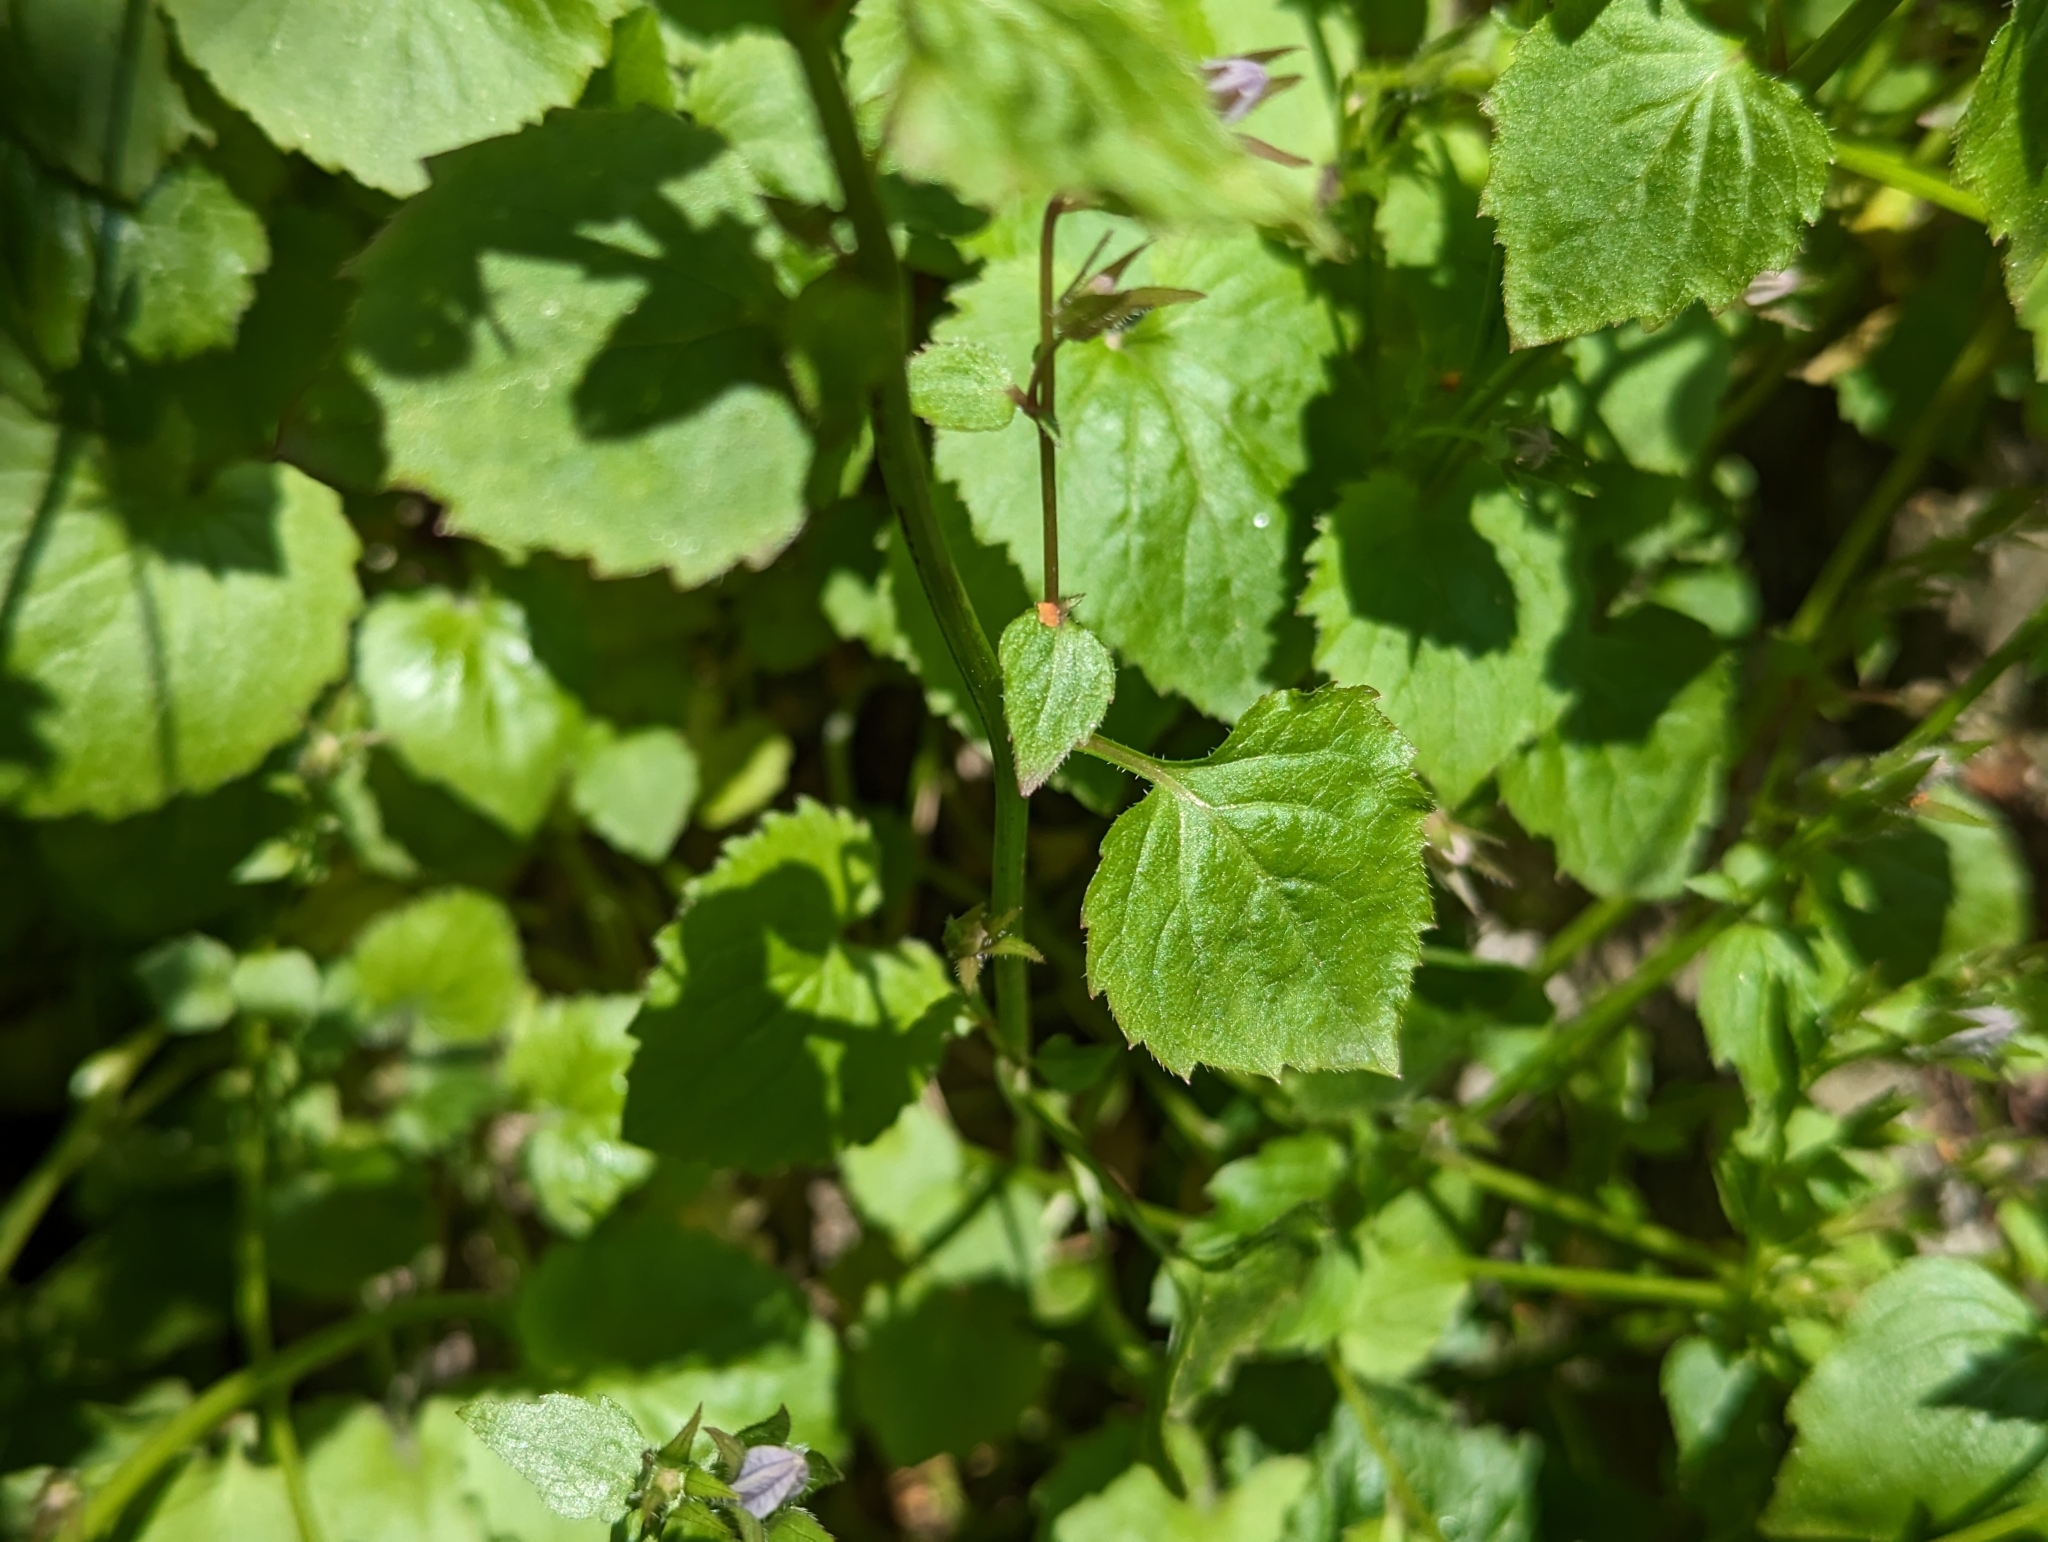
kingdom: Plantae
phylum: Tracheophyta
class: Magnoliopsida
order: Asterales
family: Campanulaceae
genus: Campanula
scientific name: Campanula poscharskyana
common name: Trailing bellflower
